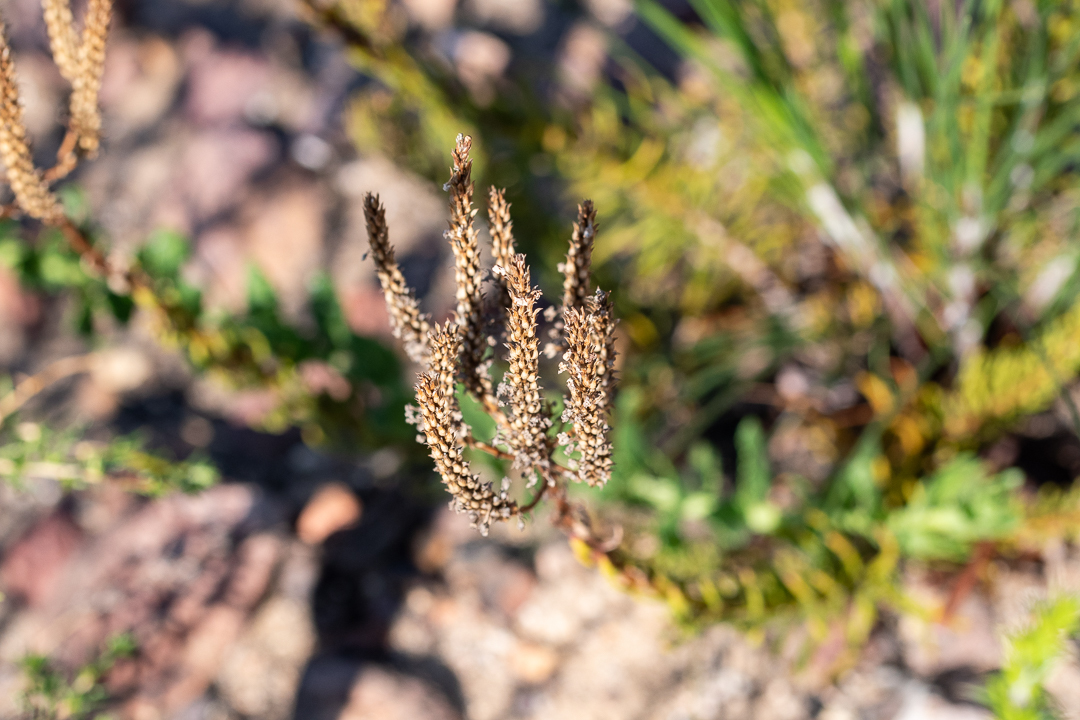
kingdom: Plantae
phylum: Tracheophyta
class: Magnoliopsida
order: Lamiales
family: Scrophulariaceae
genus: Pseudoselago
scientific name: Pseudoselago serrata
